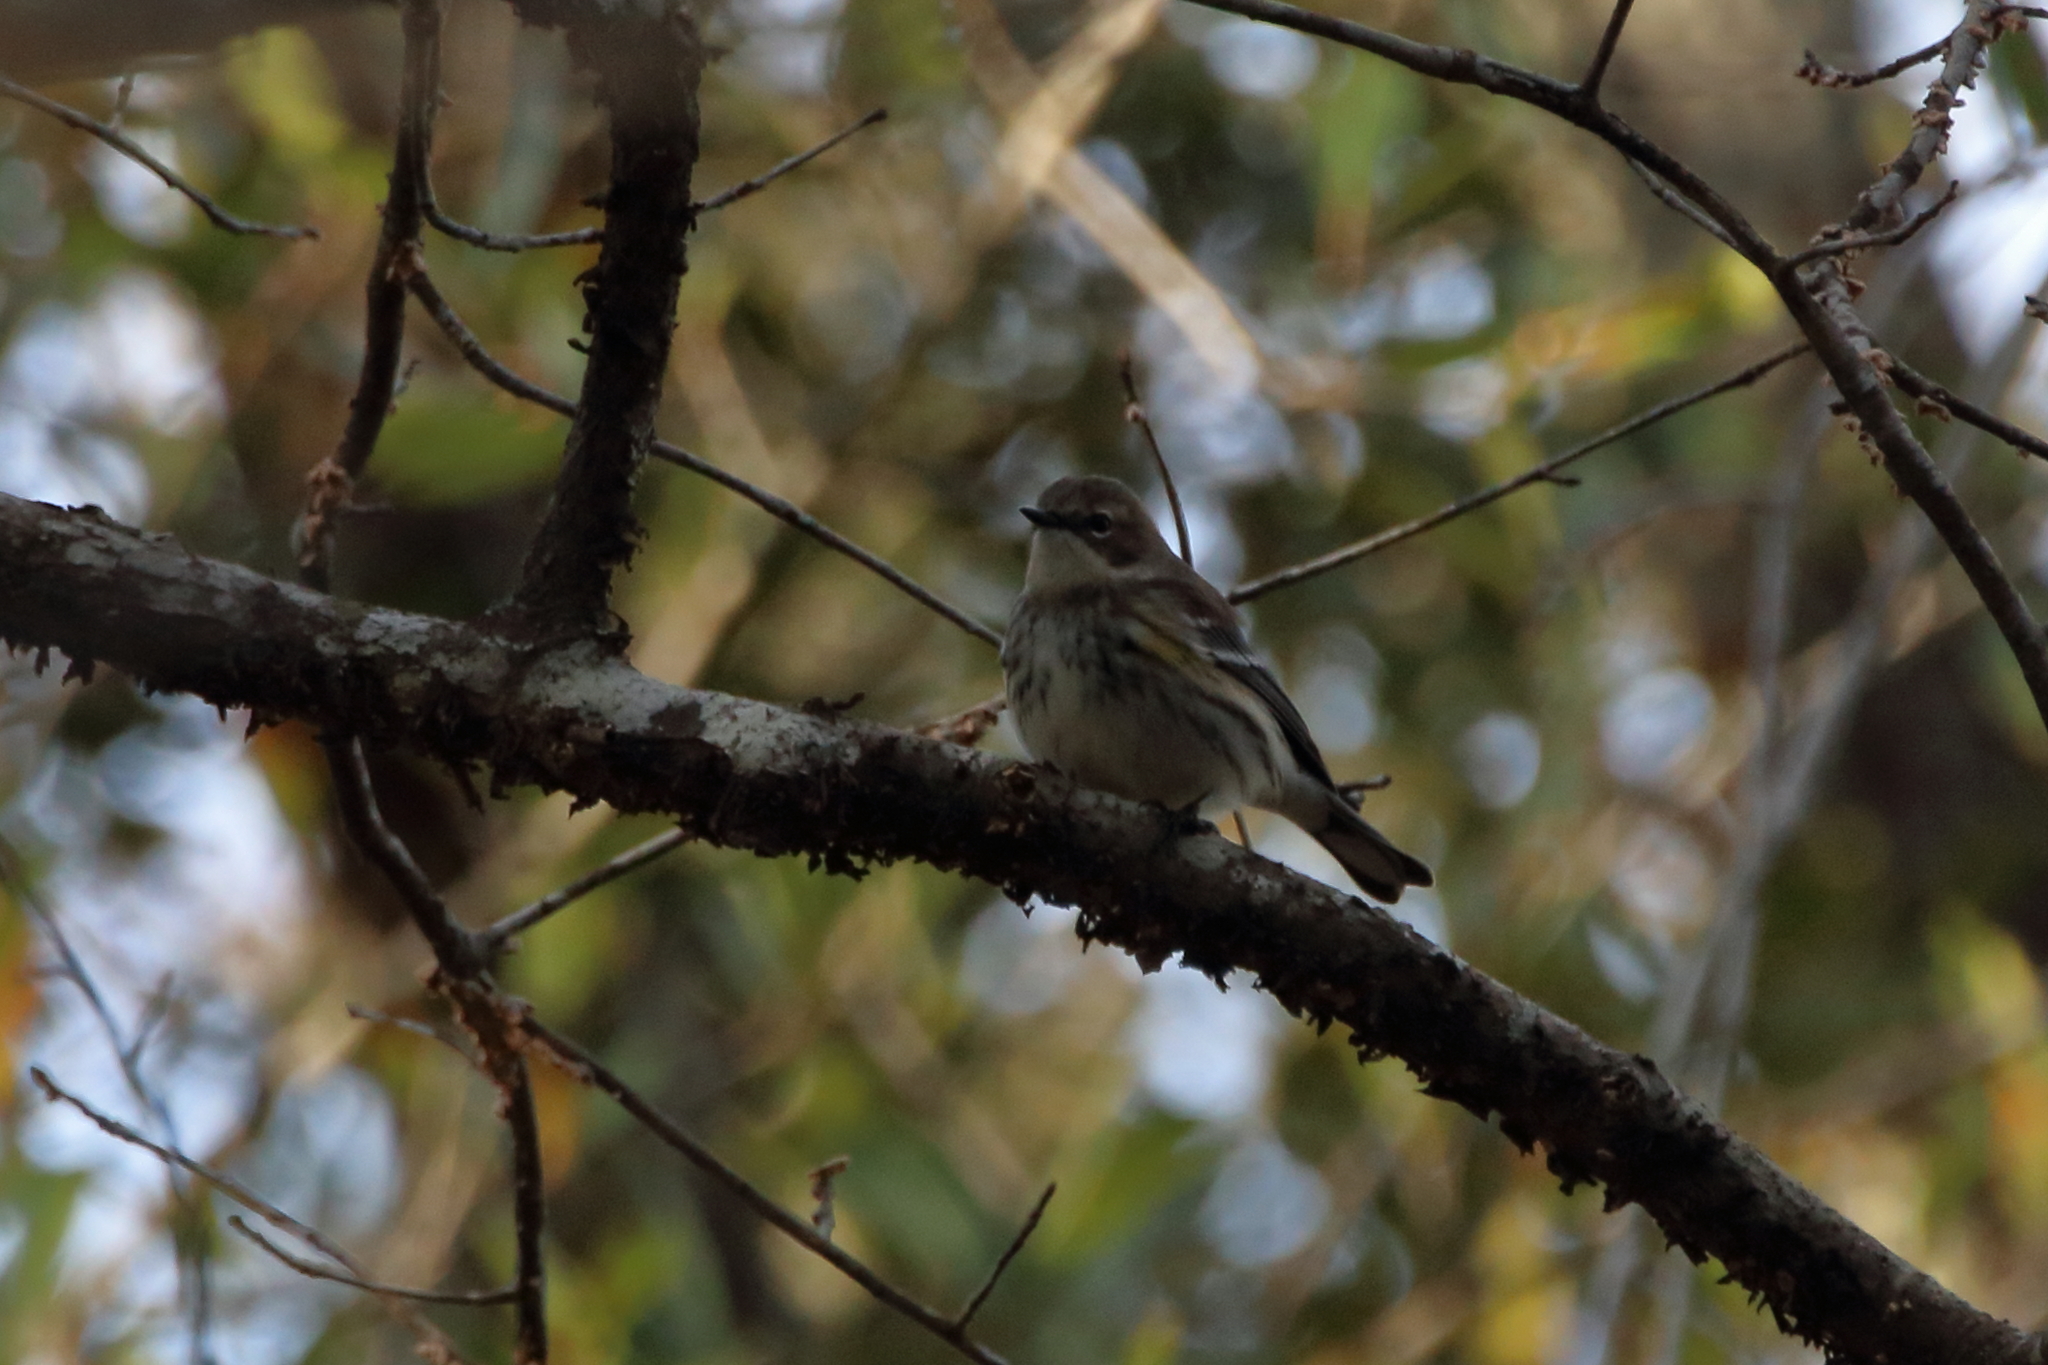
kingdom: Animalia
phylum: Chordata
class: Aves
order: Passeriformes
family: Parulidae
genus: Setophaga
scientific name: Setophaga coronata
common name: Myrtle warbler
